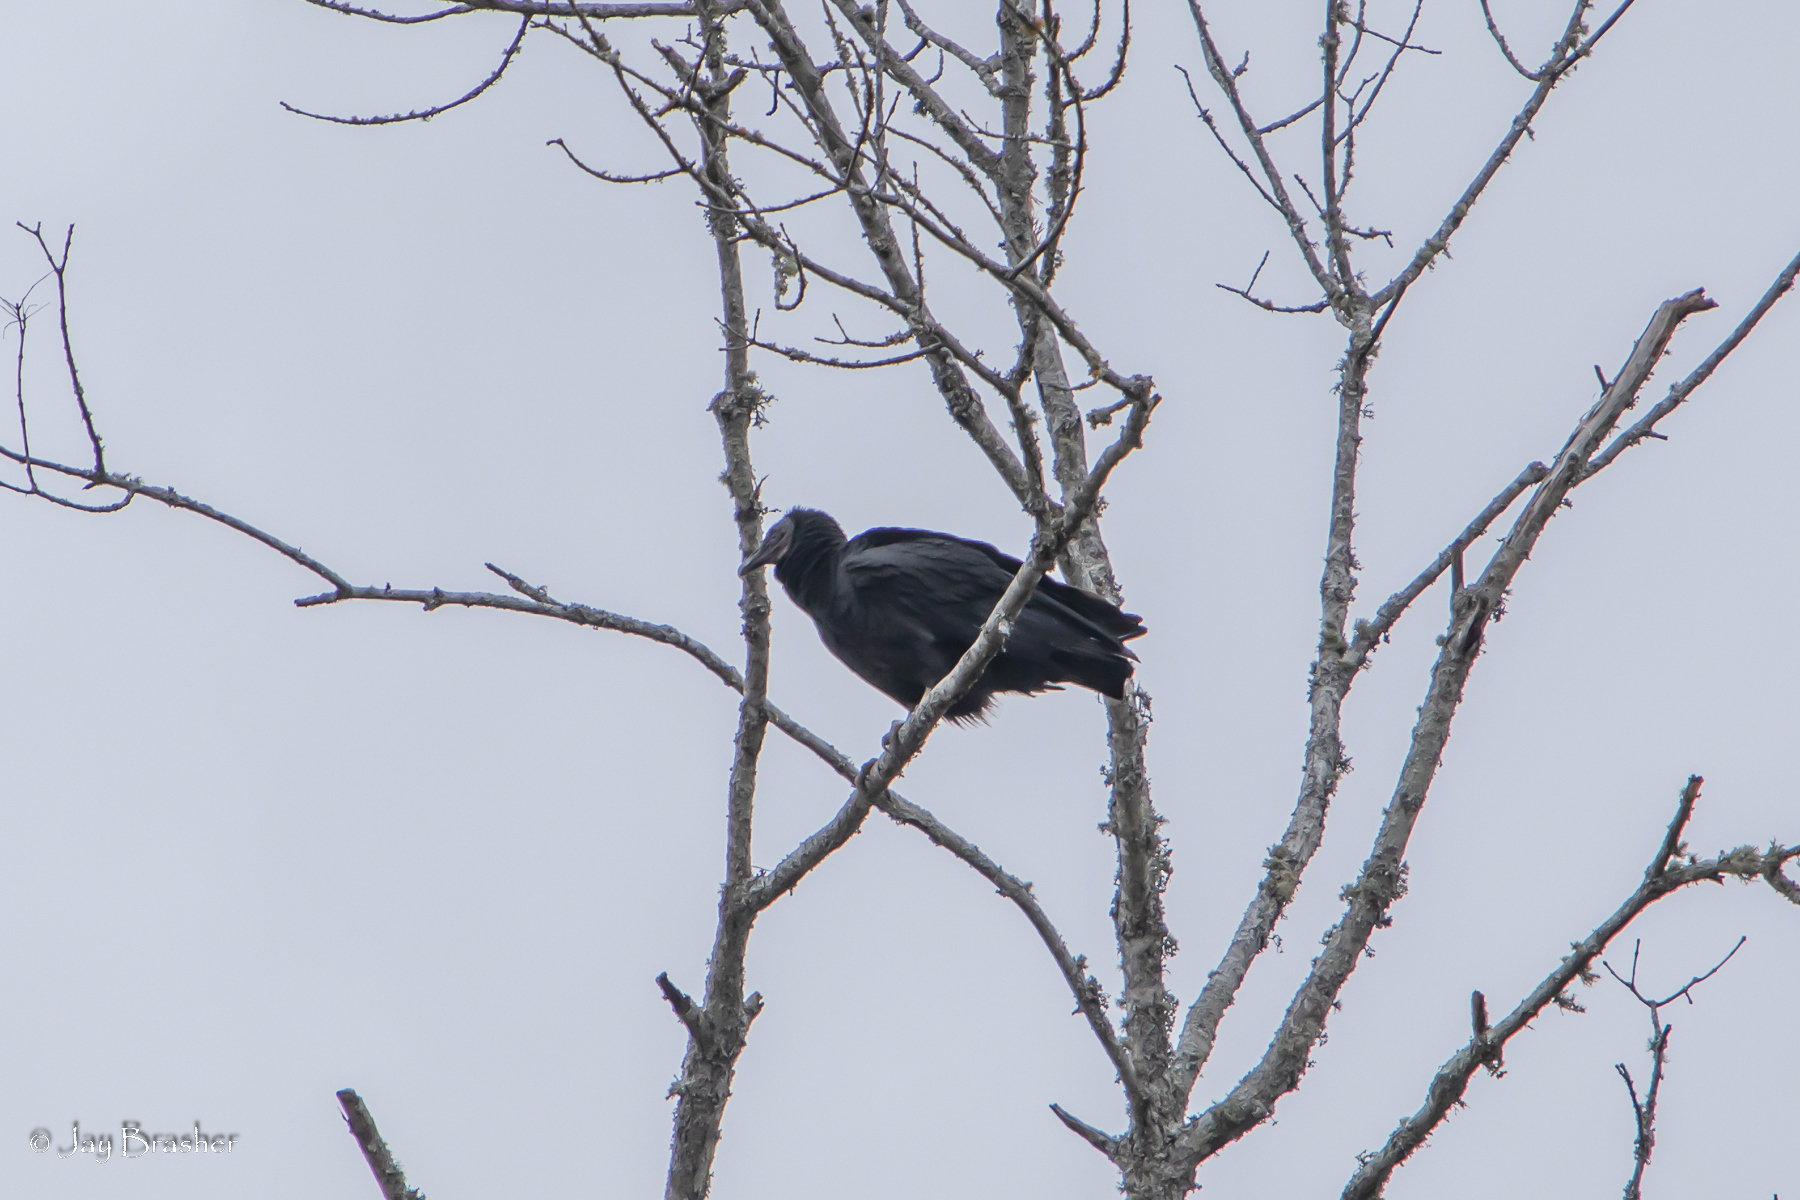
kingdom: Animalia
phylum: Chordata
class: Aves
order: Accipitriformes
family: Cathartidae
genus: Coragyps
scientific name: Coragyps atratus
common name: Black vulture
